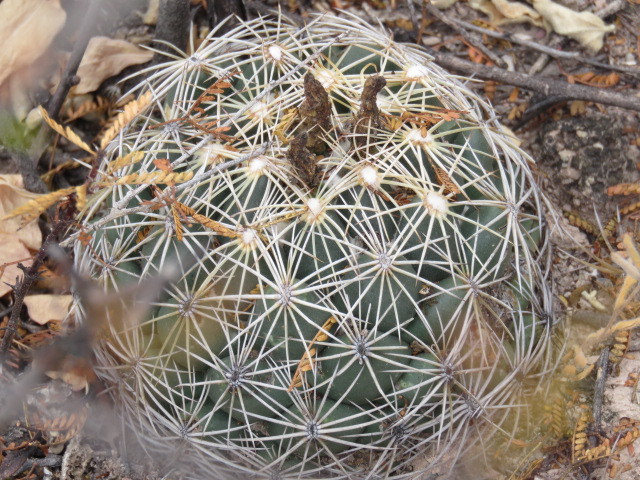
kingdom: Plantae
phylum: Tracheophyta
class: Magnoliopsida
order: Caryophyllales
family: Cactaceae
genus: Coryphantha
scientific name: Coryphantha cornifera
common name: Rhinoceros cactus
